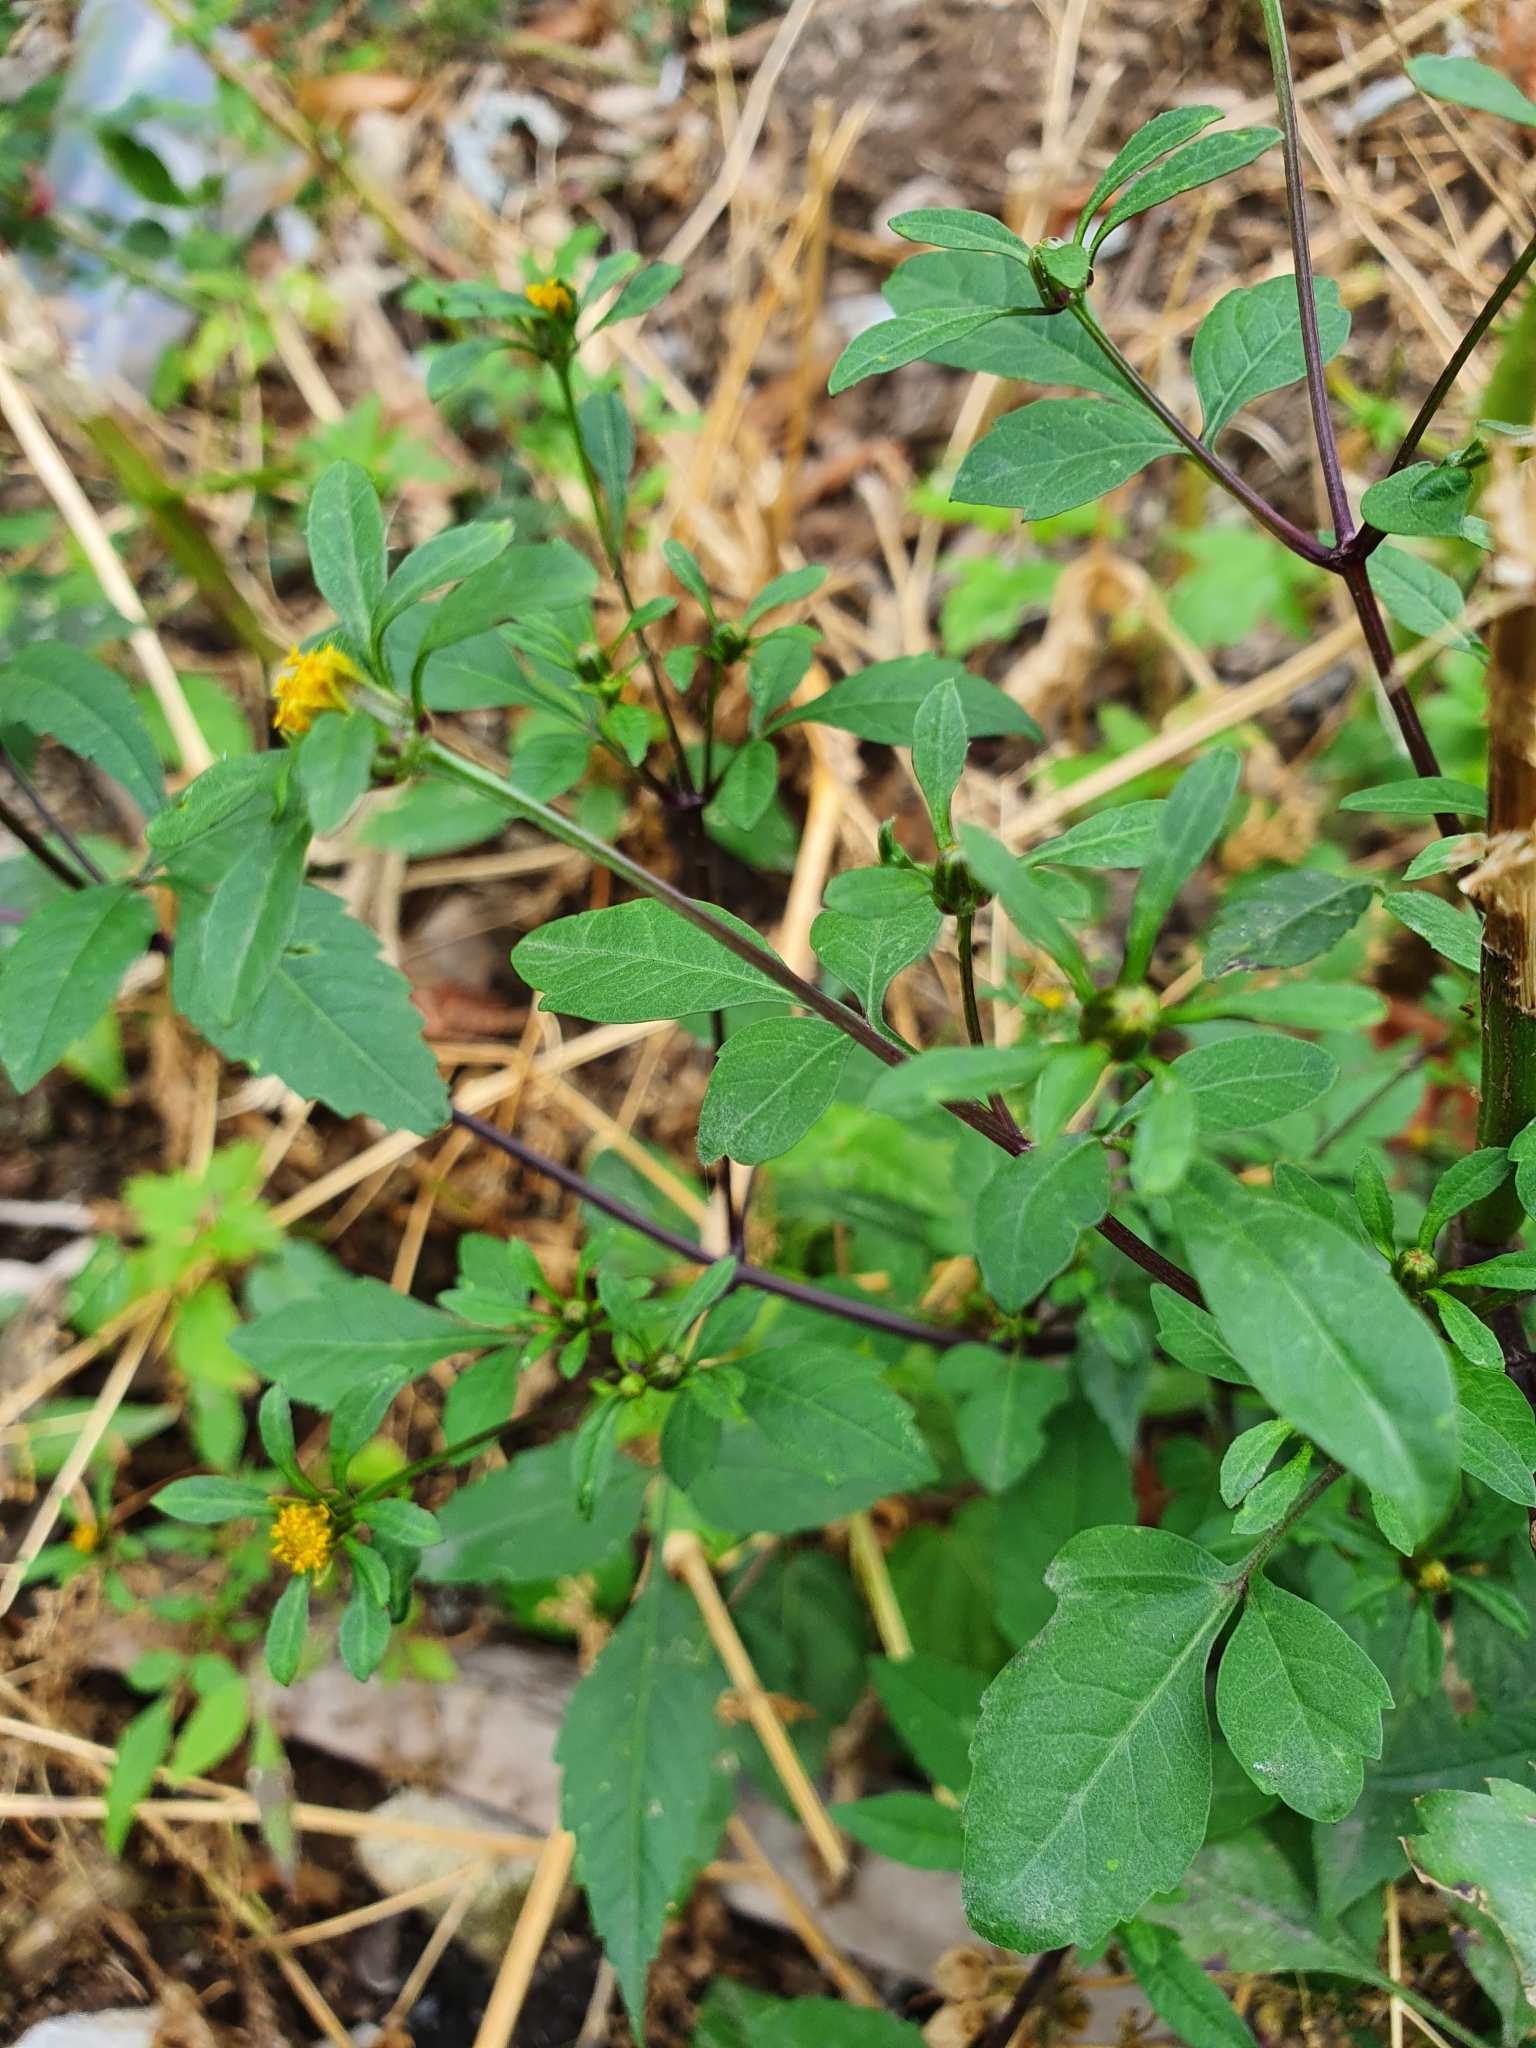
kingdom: Plantae
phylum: Tracheophyta
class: Magnoliopsida
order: Asterales
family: Asteraceae
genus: Bidens
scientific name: Bidens frondosa
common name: Beggarticks
